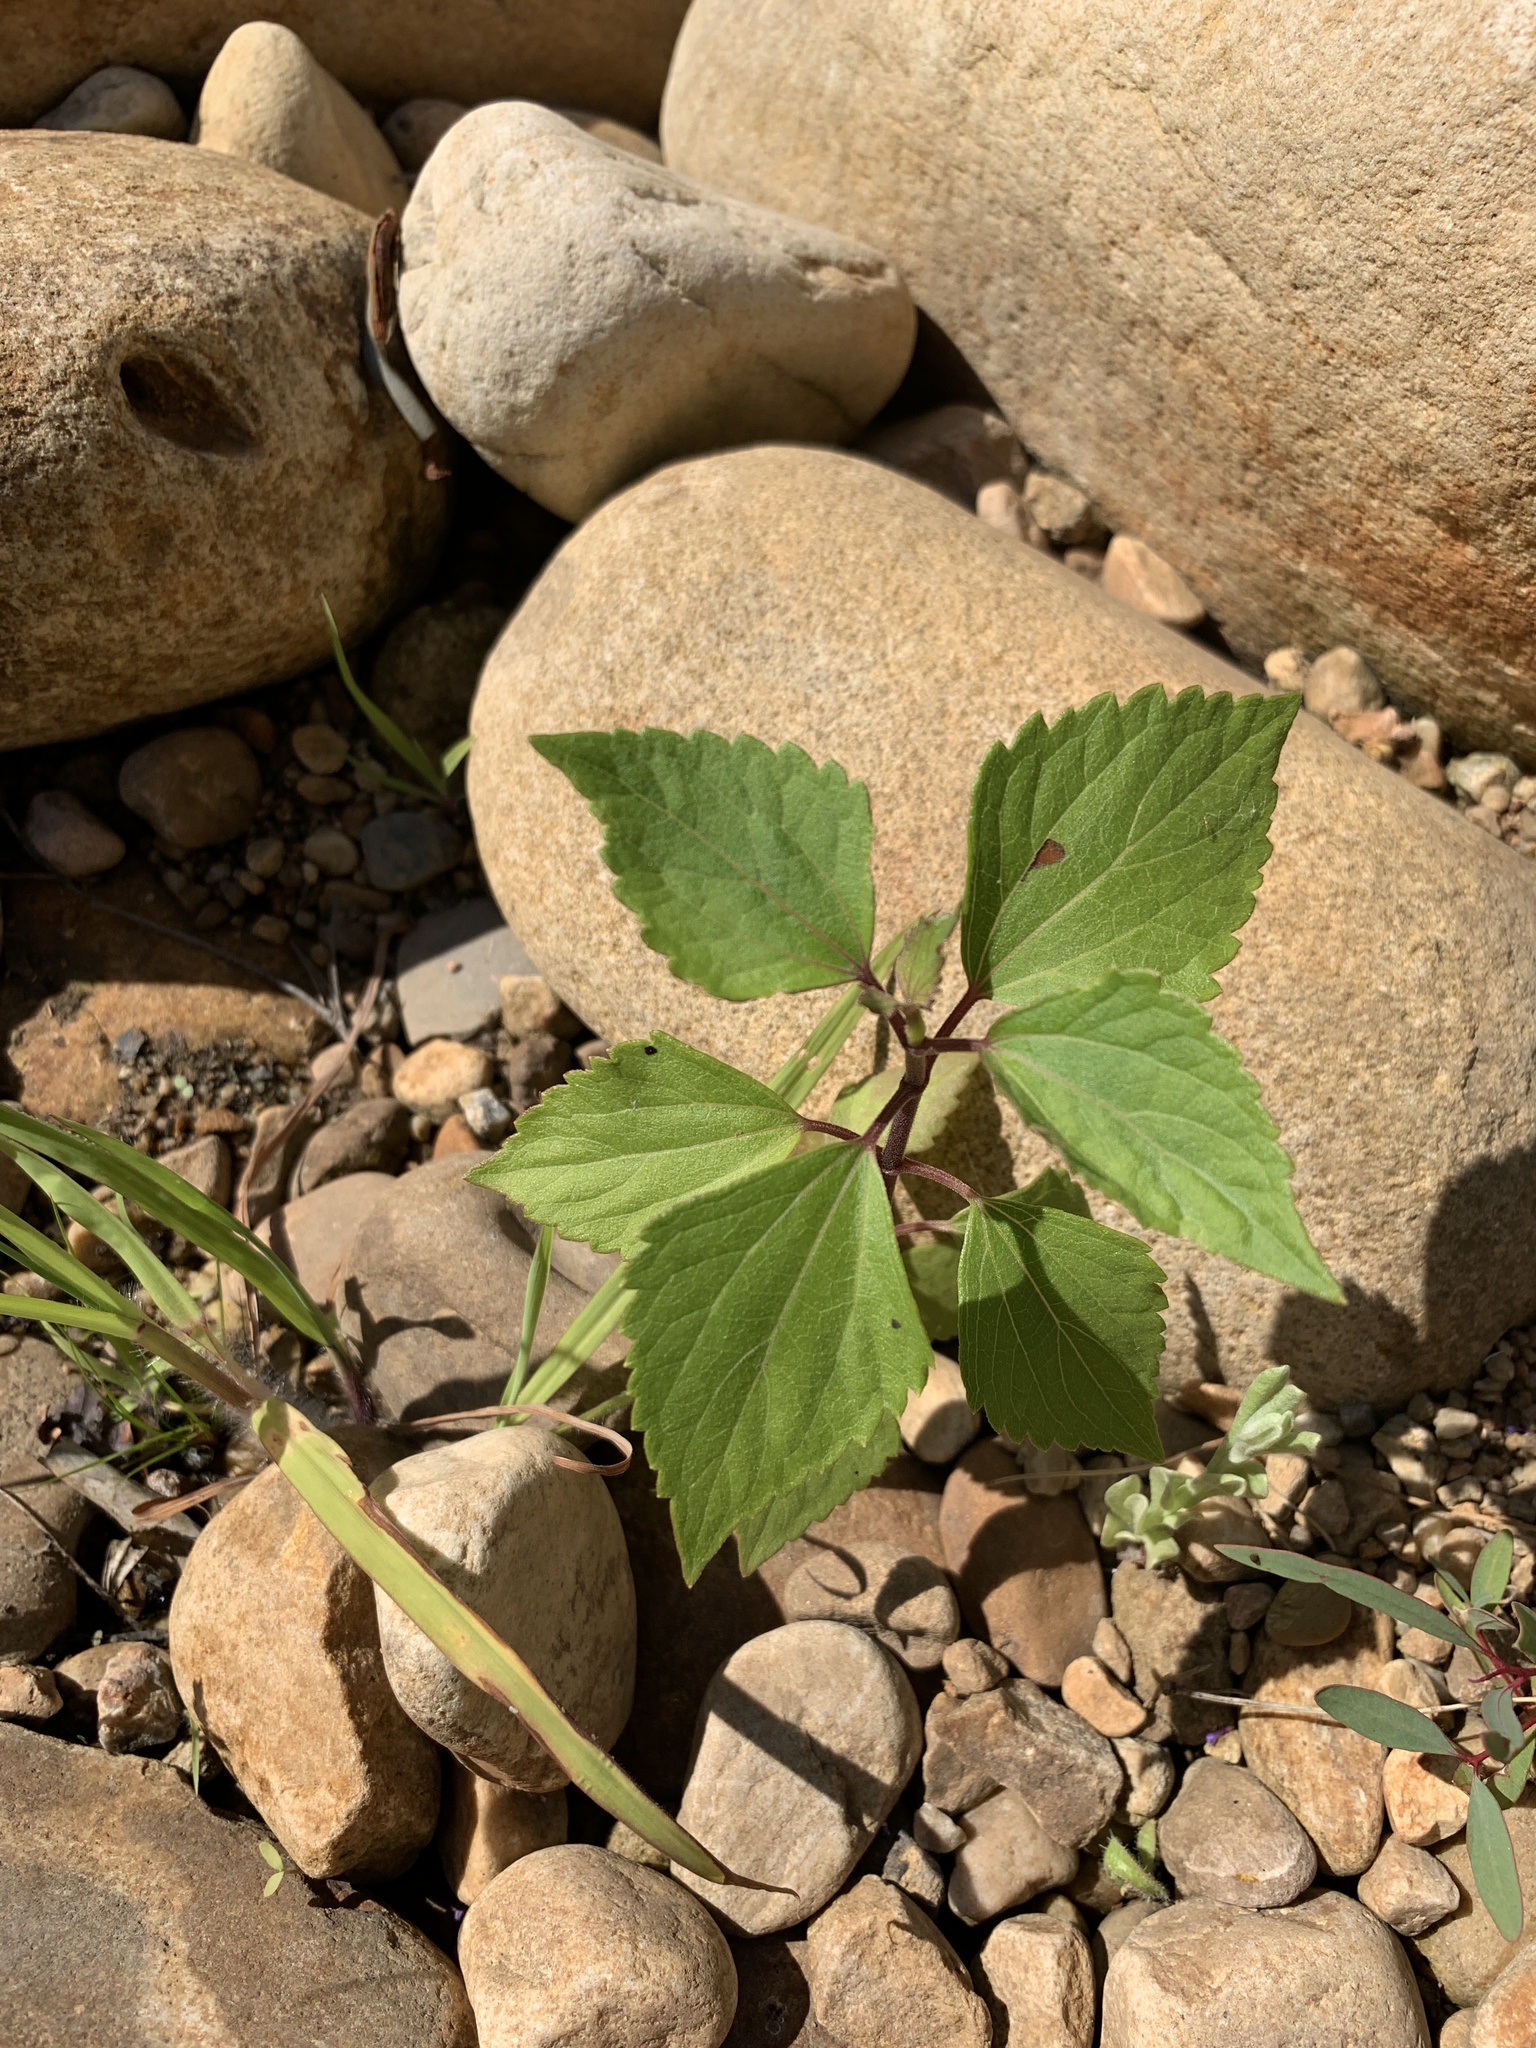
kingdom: Plantae
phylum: Tracheophyta
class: Magnoliopsida
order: Asterales
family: Asteraceae
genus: Ageratina
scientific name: Ageratina adenophora
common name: Sticky snakeroot
